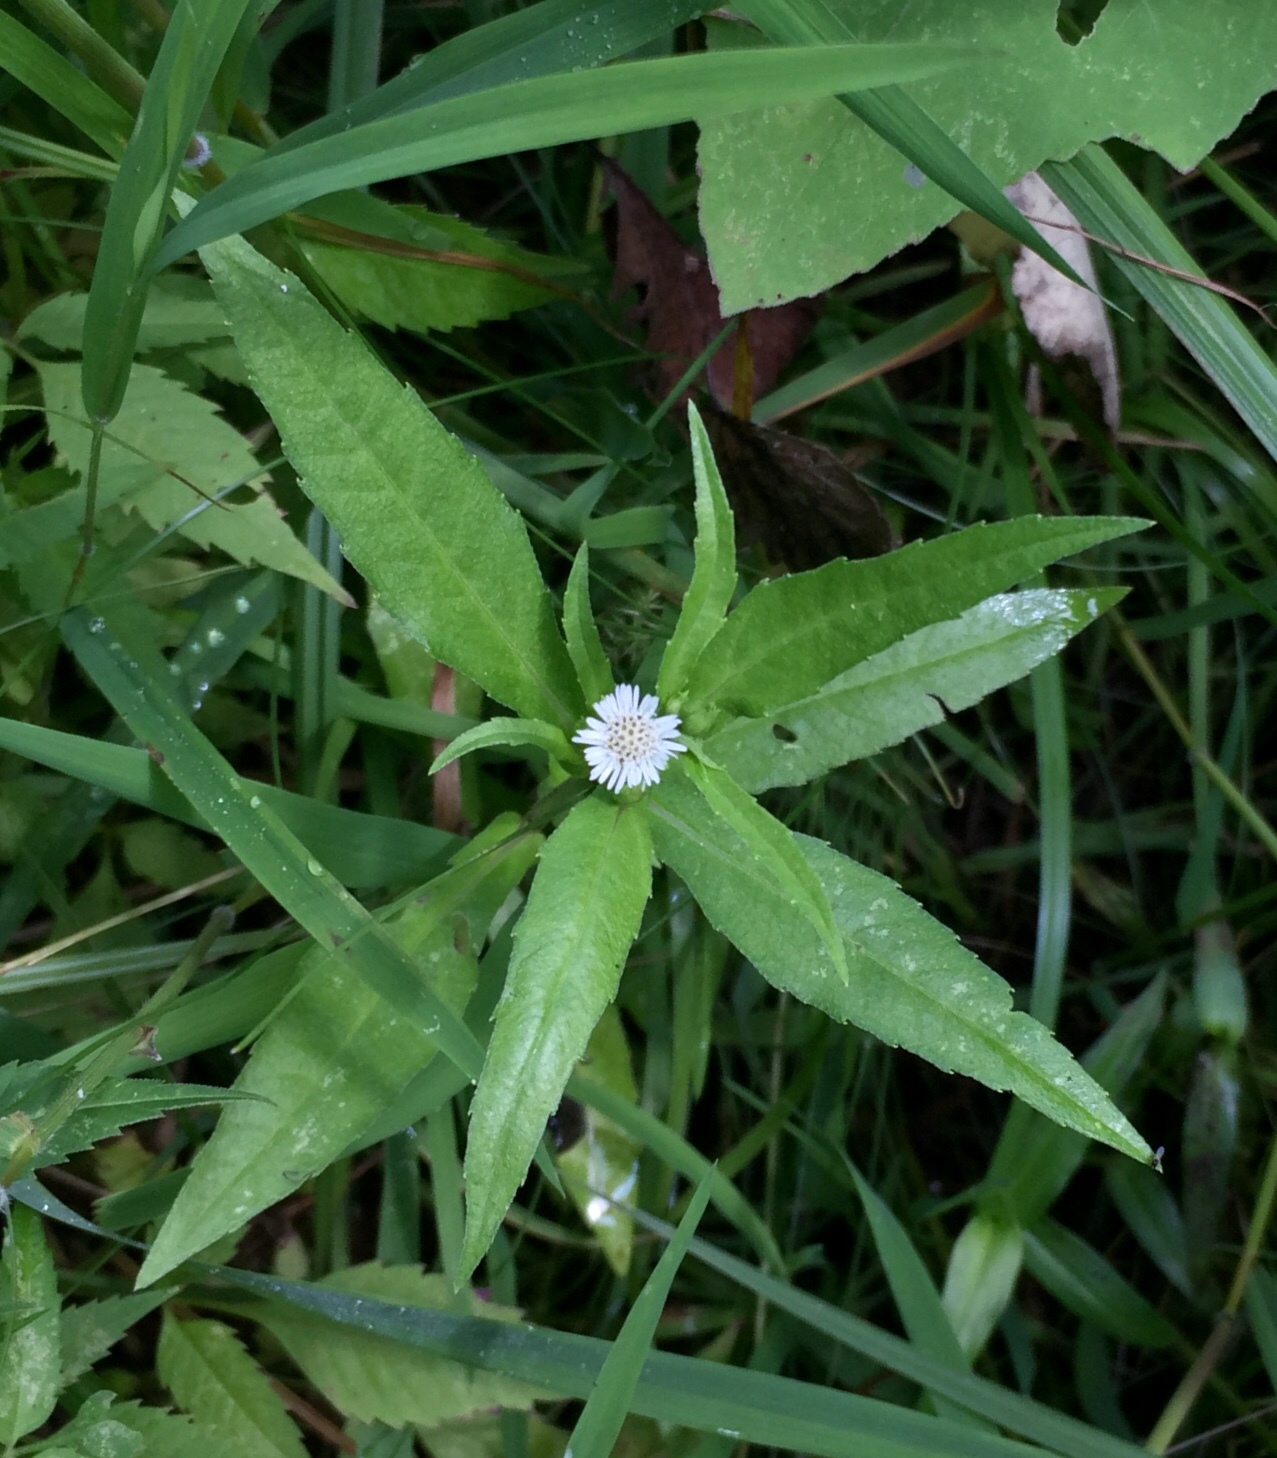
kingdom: Plantae
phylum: Tracheophyta
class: Magnoliopsida
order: Asterales
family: Asteraceae
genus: Eclipta
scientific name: Eclipta prostrata
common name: False daisy
